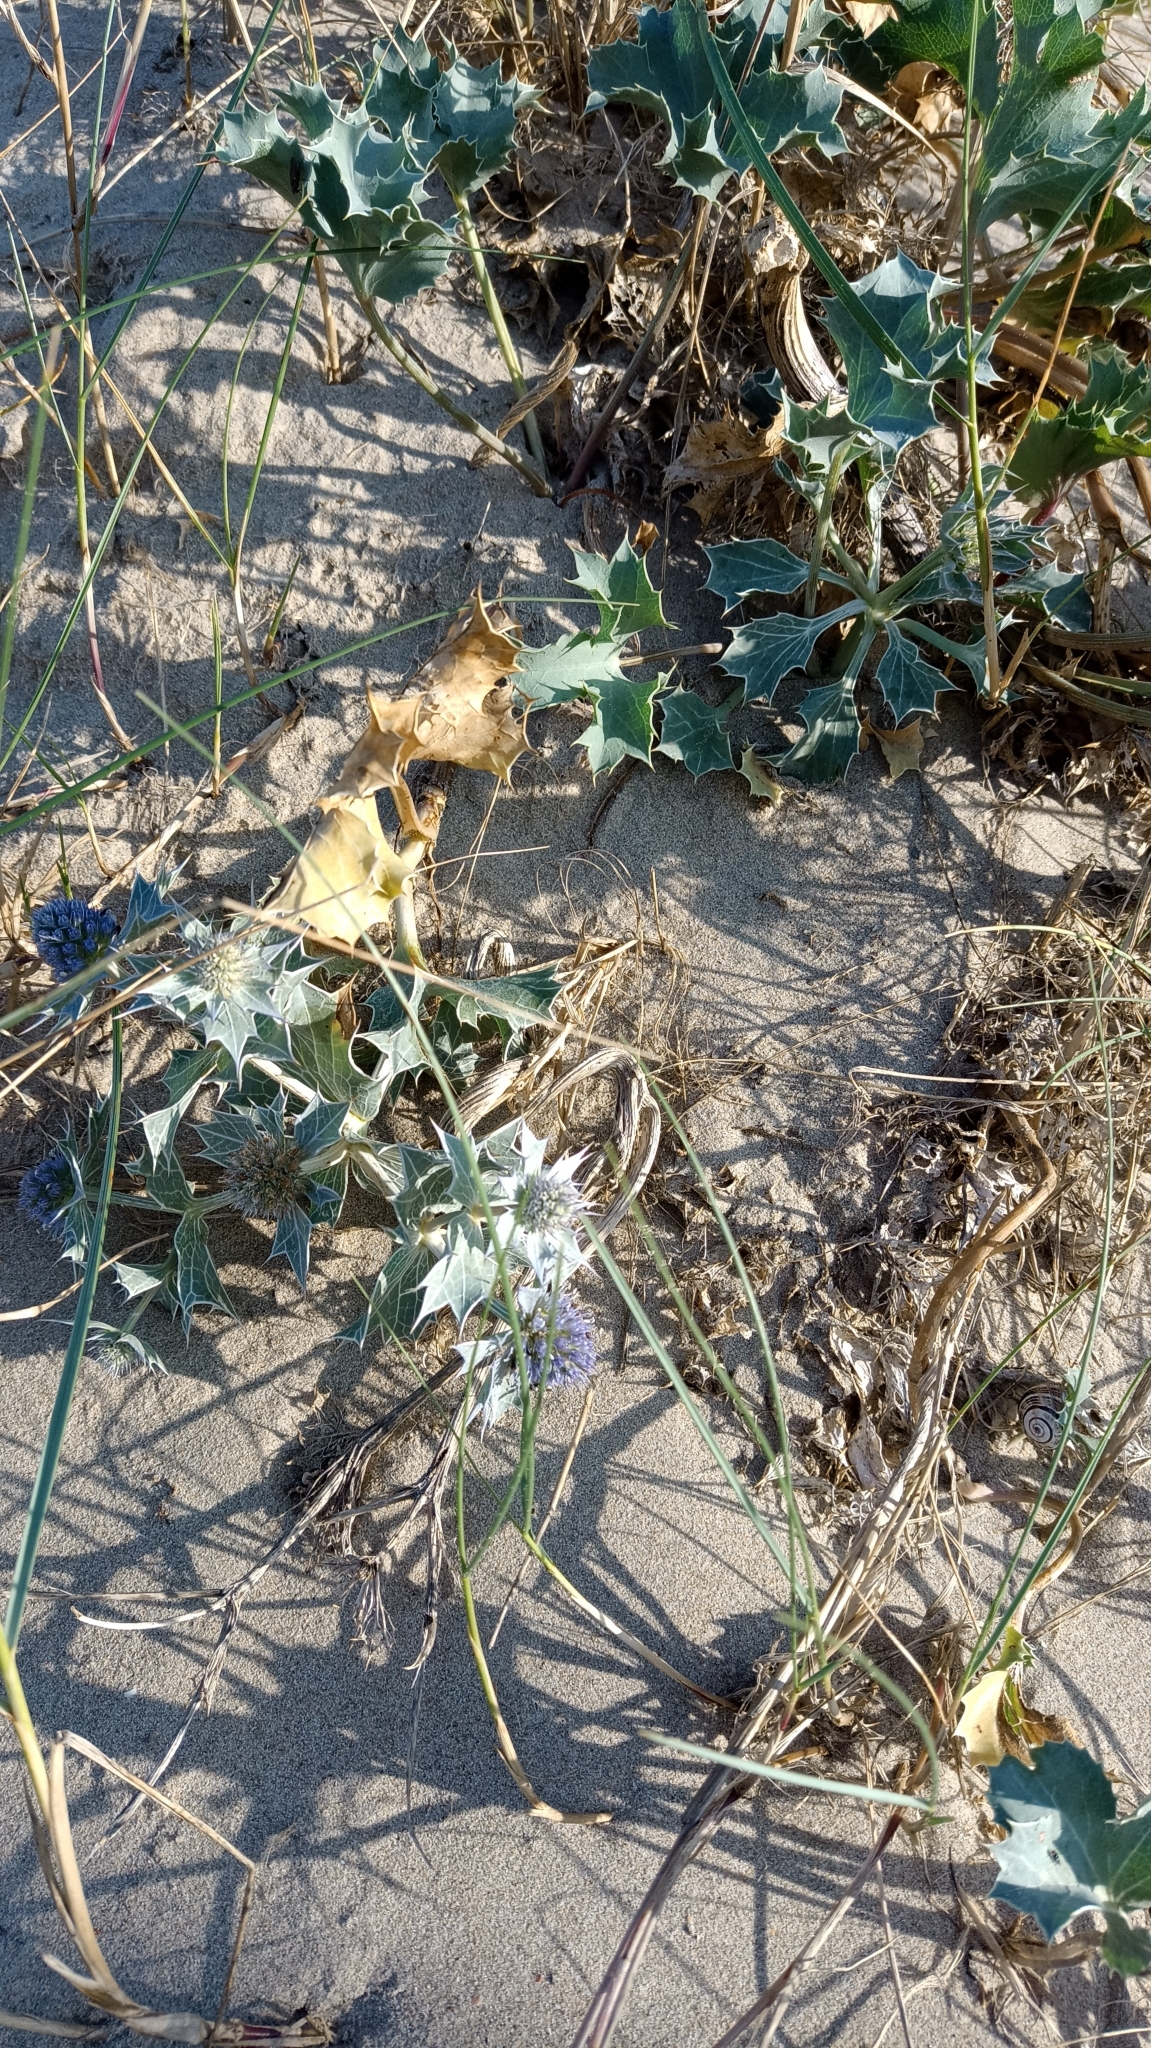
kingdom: Plantae
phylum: Tracheophyta
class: Magnoliopsida
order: Apiales
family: Apiaceae
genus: Eryngium
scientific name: Eryngium maritimum
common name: Sea-holly
